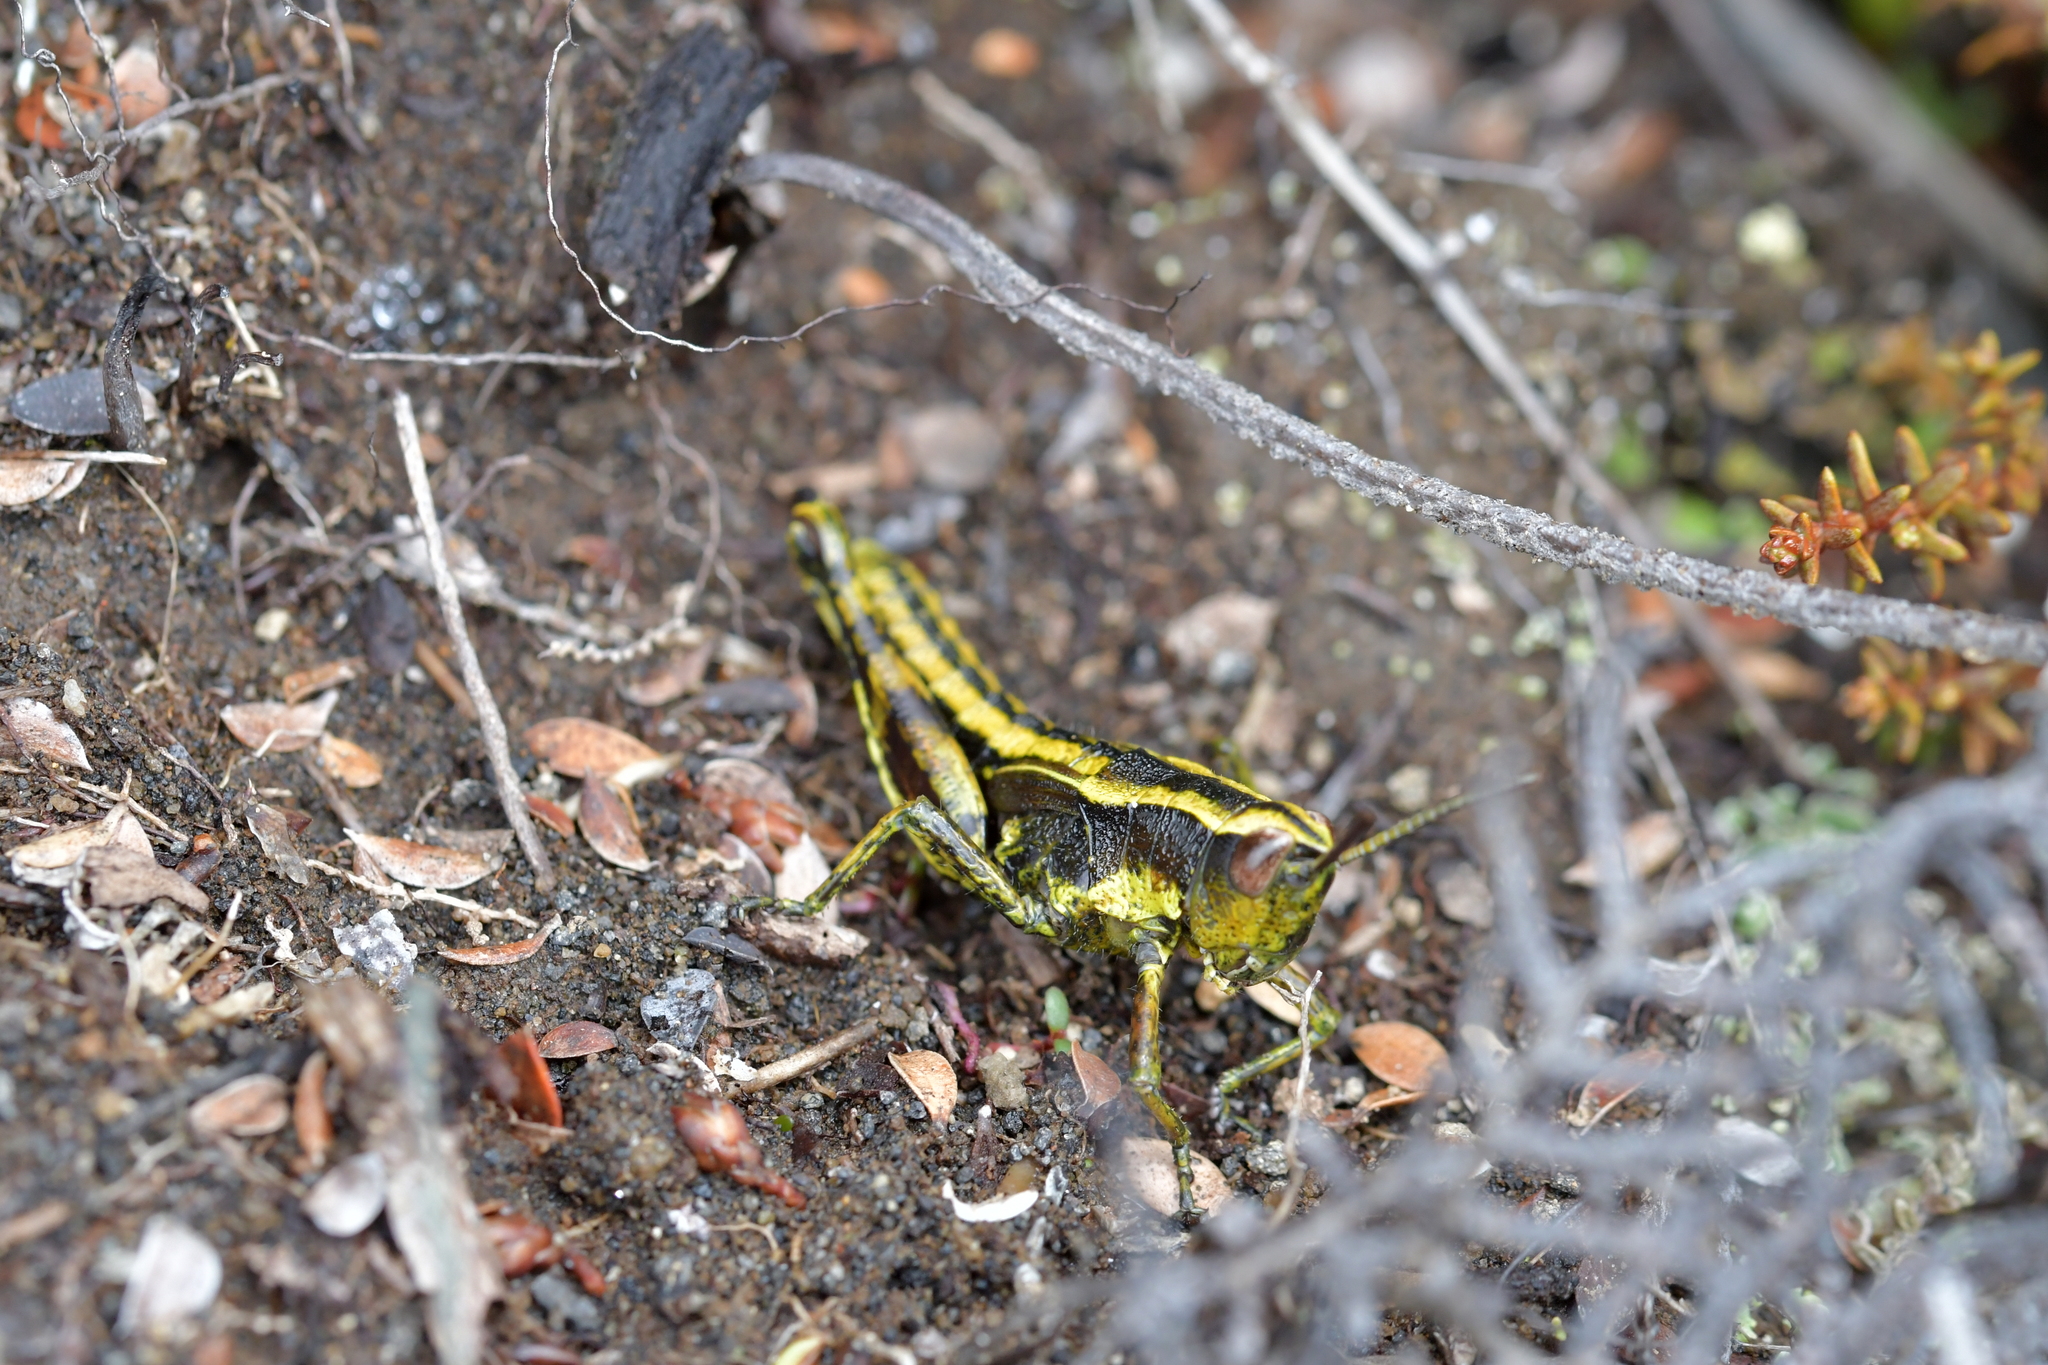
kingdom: Animalia
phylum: Arthropoda
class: Insecta
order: Orthoptera
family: Acrididae
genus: Sigaus
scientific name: Sigaus piliferus
